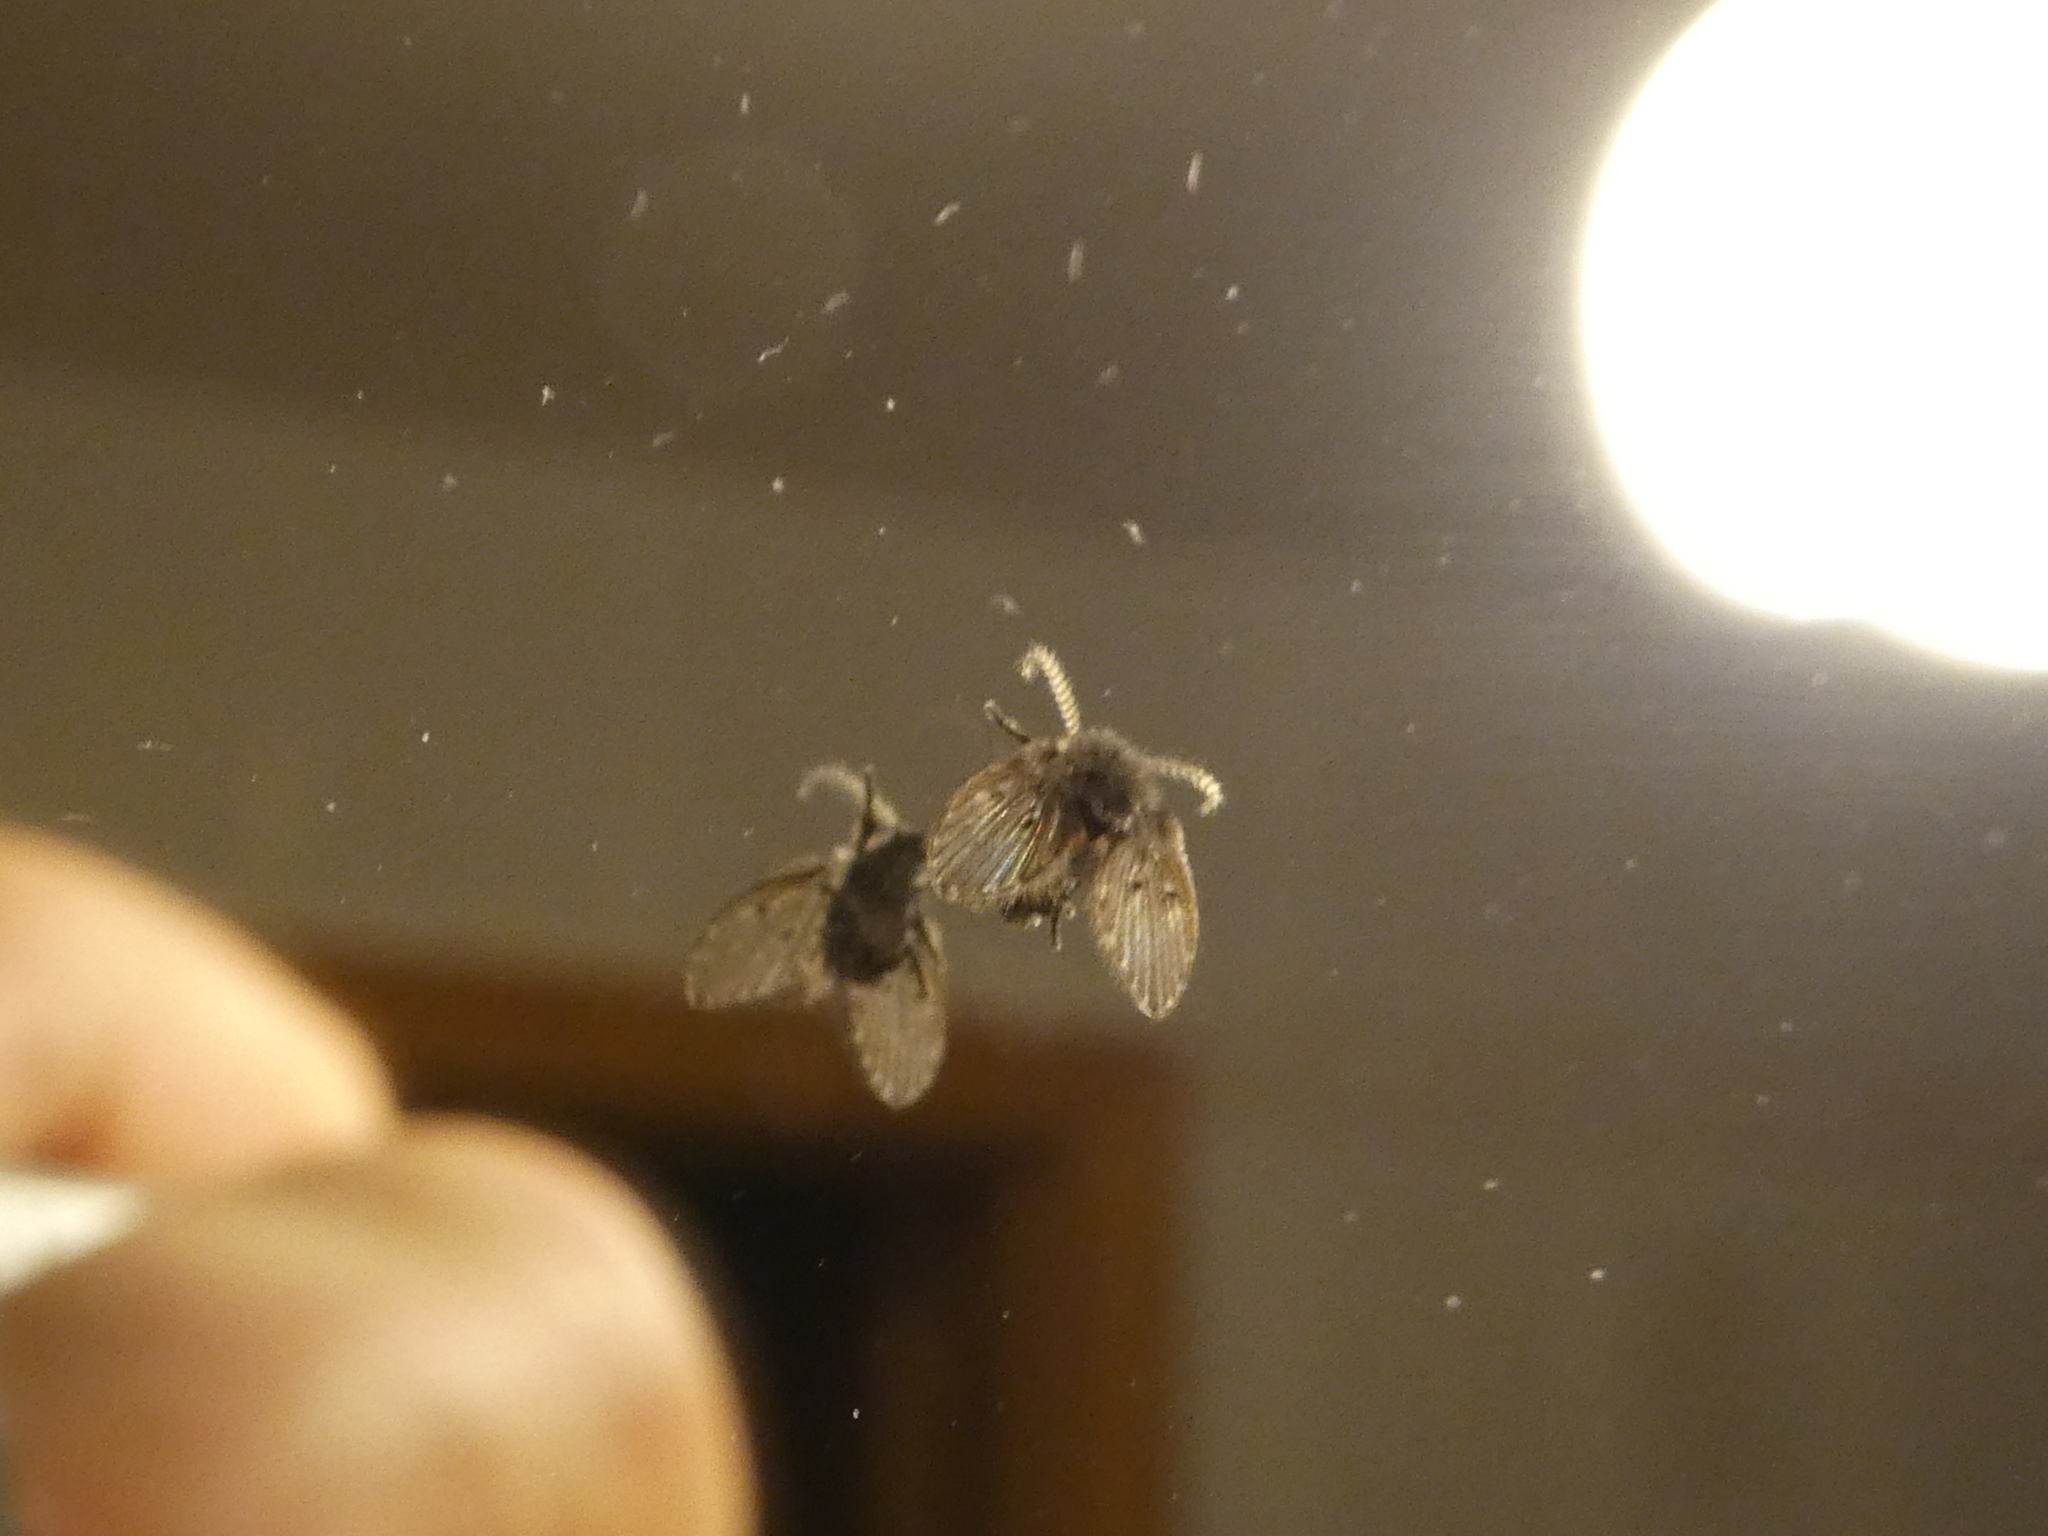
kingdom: Animalia
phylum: Arthropoda
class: Insecta
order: Diptera
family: Psychodidae
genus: Clogmia
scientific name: Clogmia albipunctatus
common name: White-spotted moth fly
